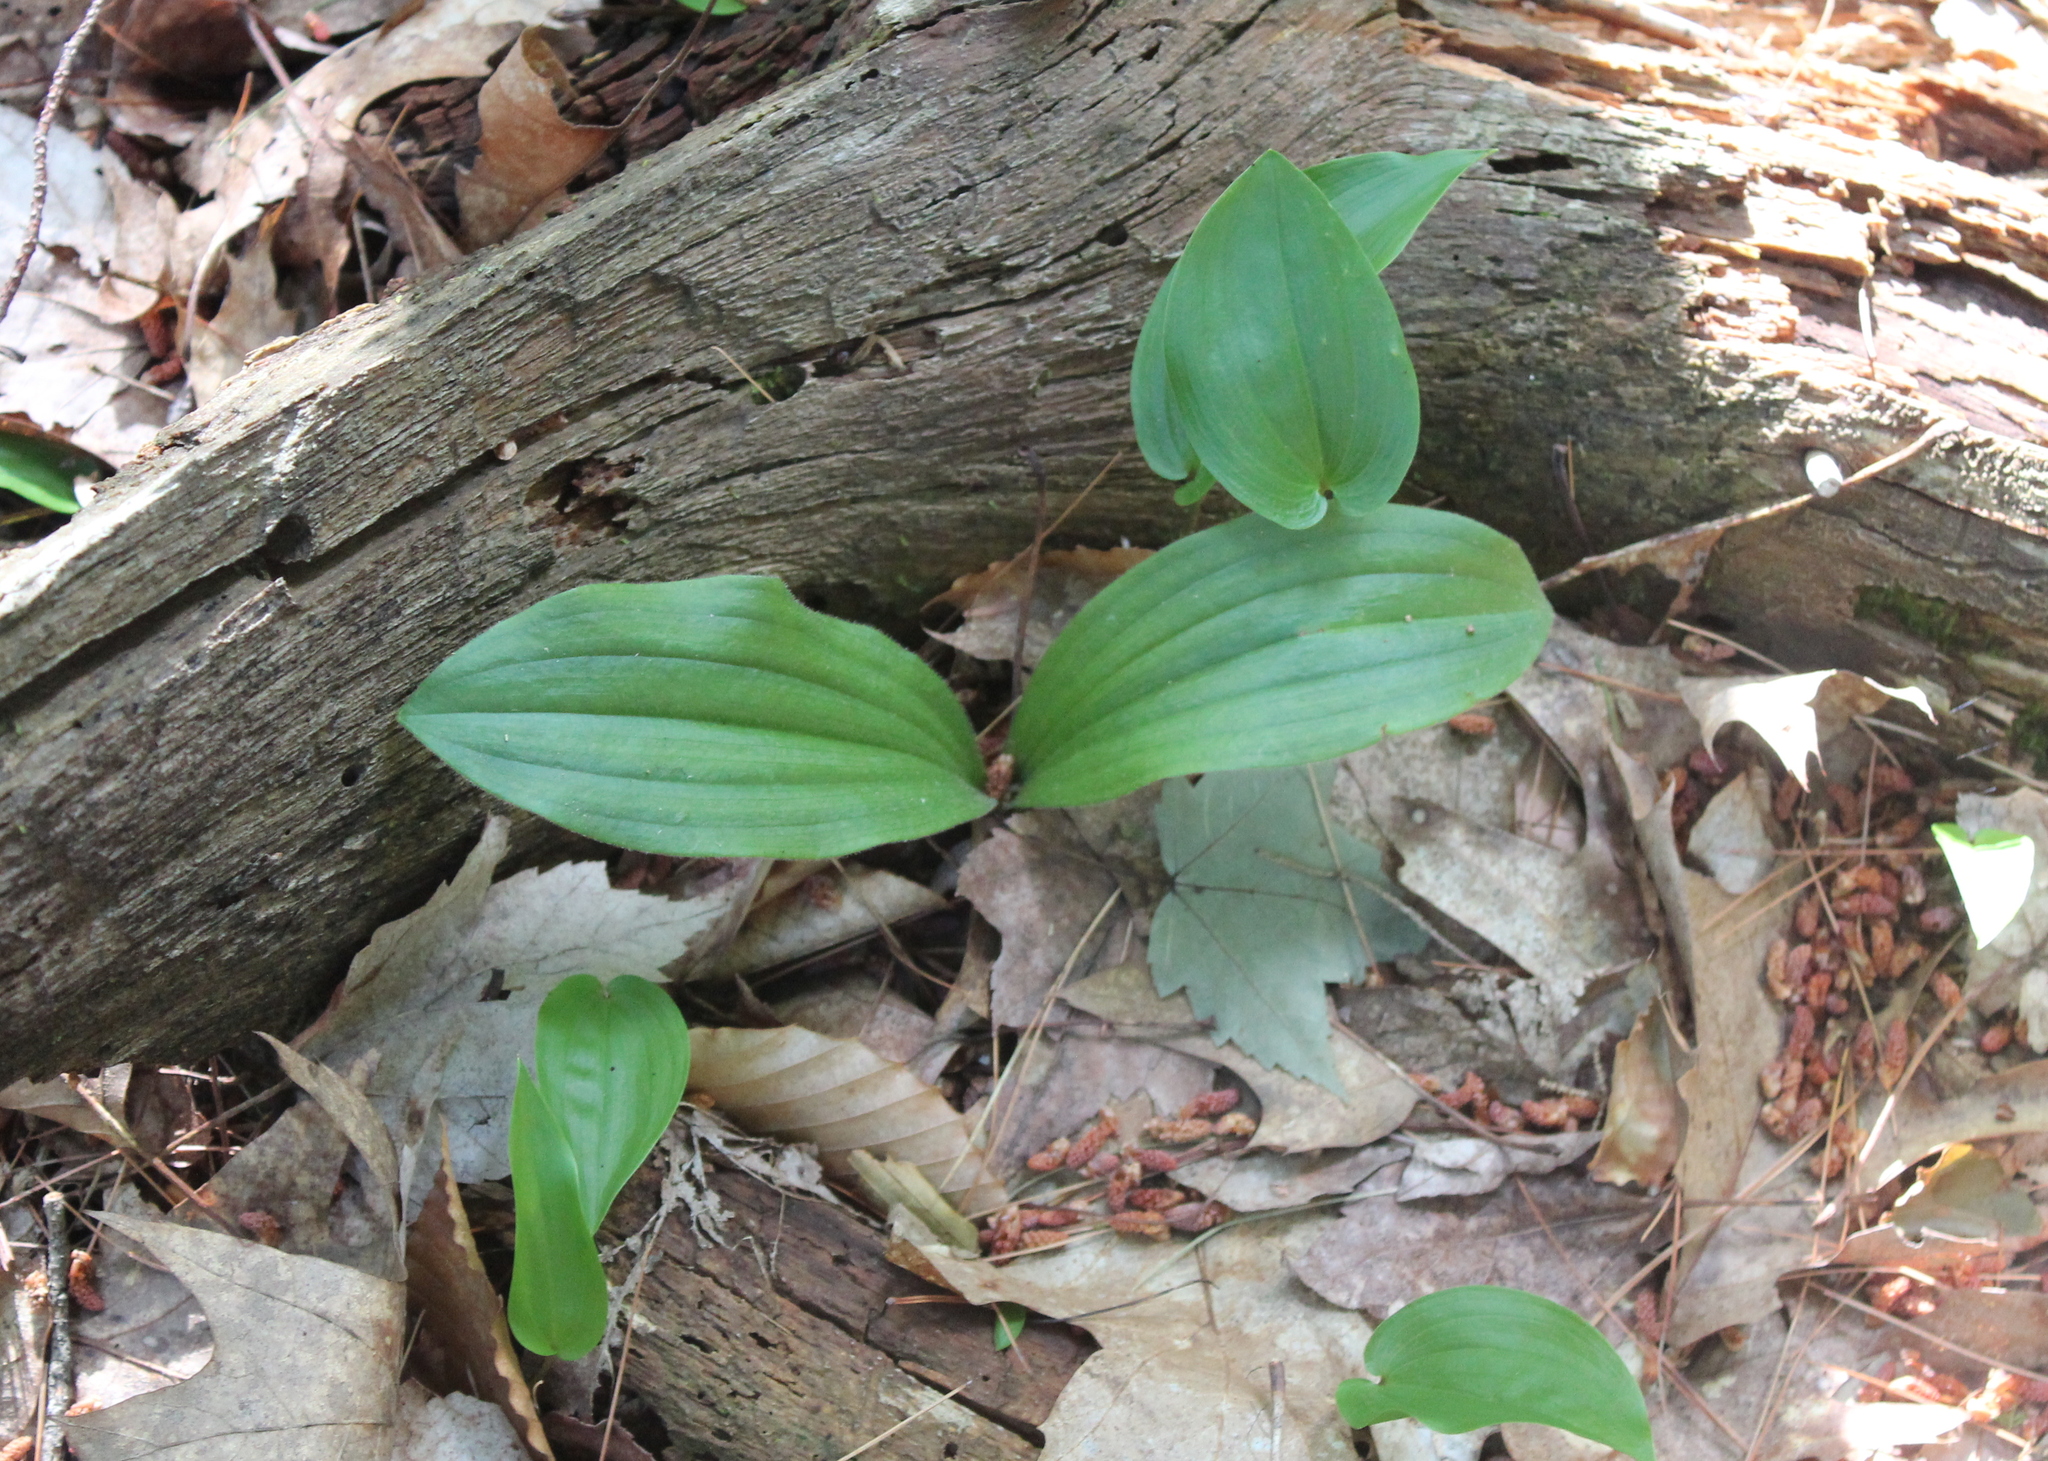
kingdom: Plantae
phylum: Tracheophyta
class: Liliopsida
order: Asparagales
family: Orchidaceae
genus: Cypripedium
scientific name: Cypripedium acaule
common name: Pink lady's-slipper
